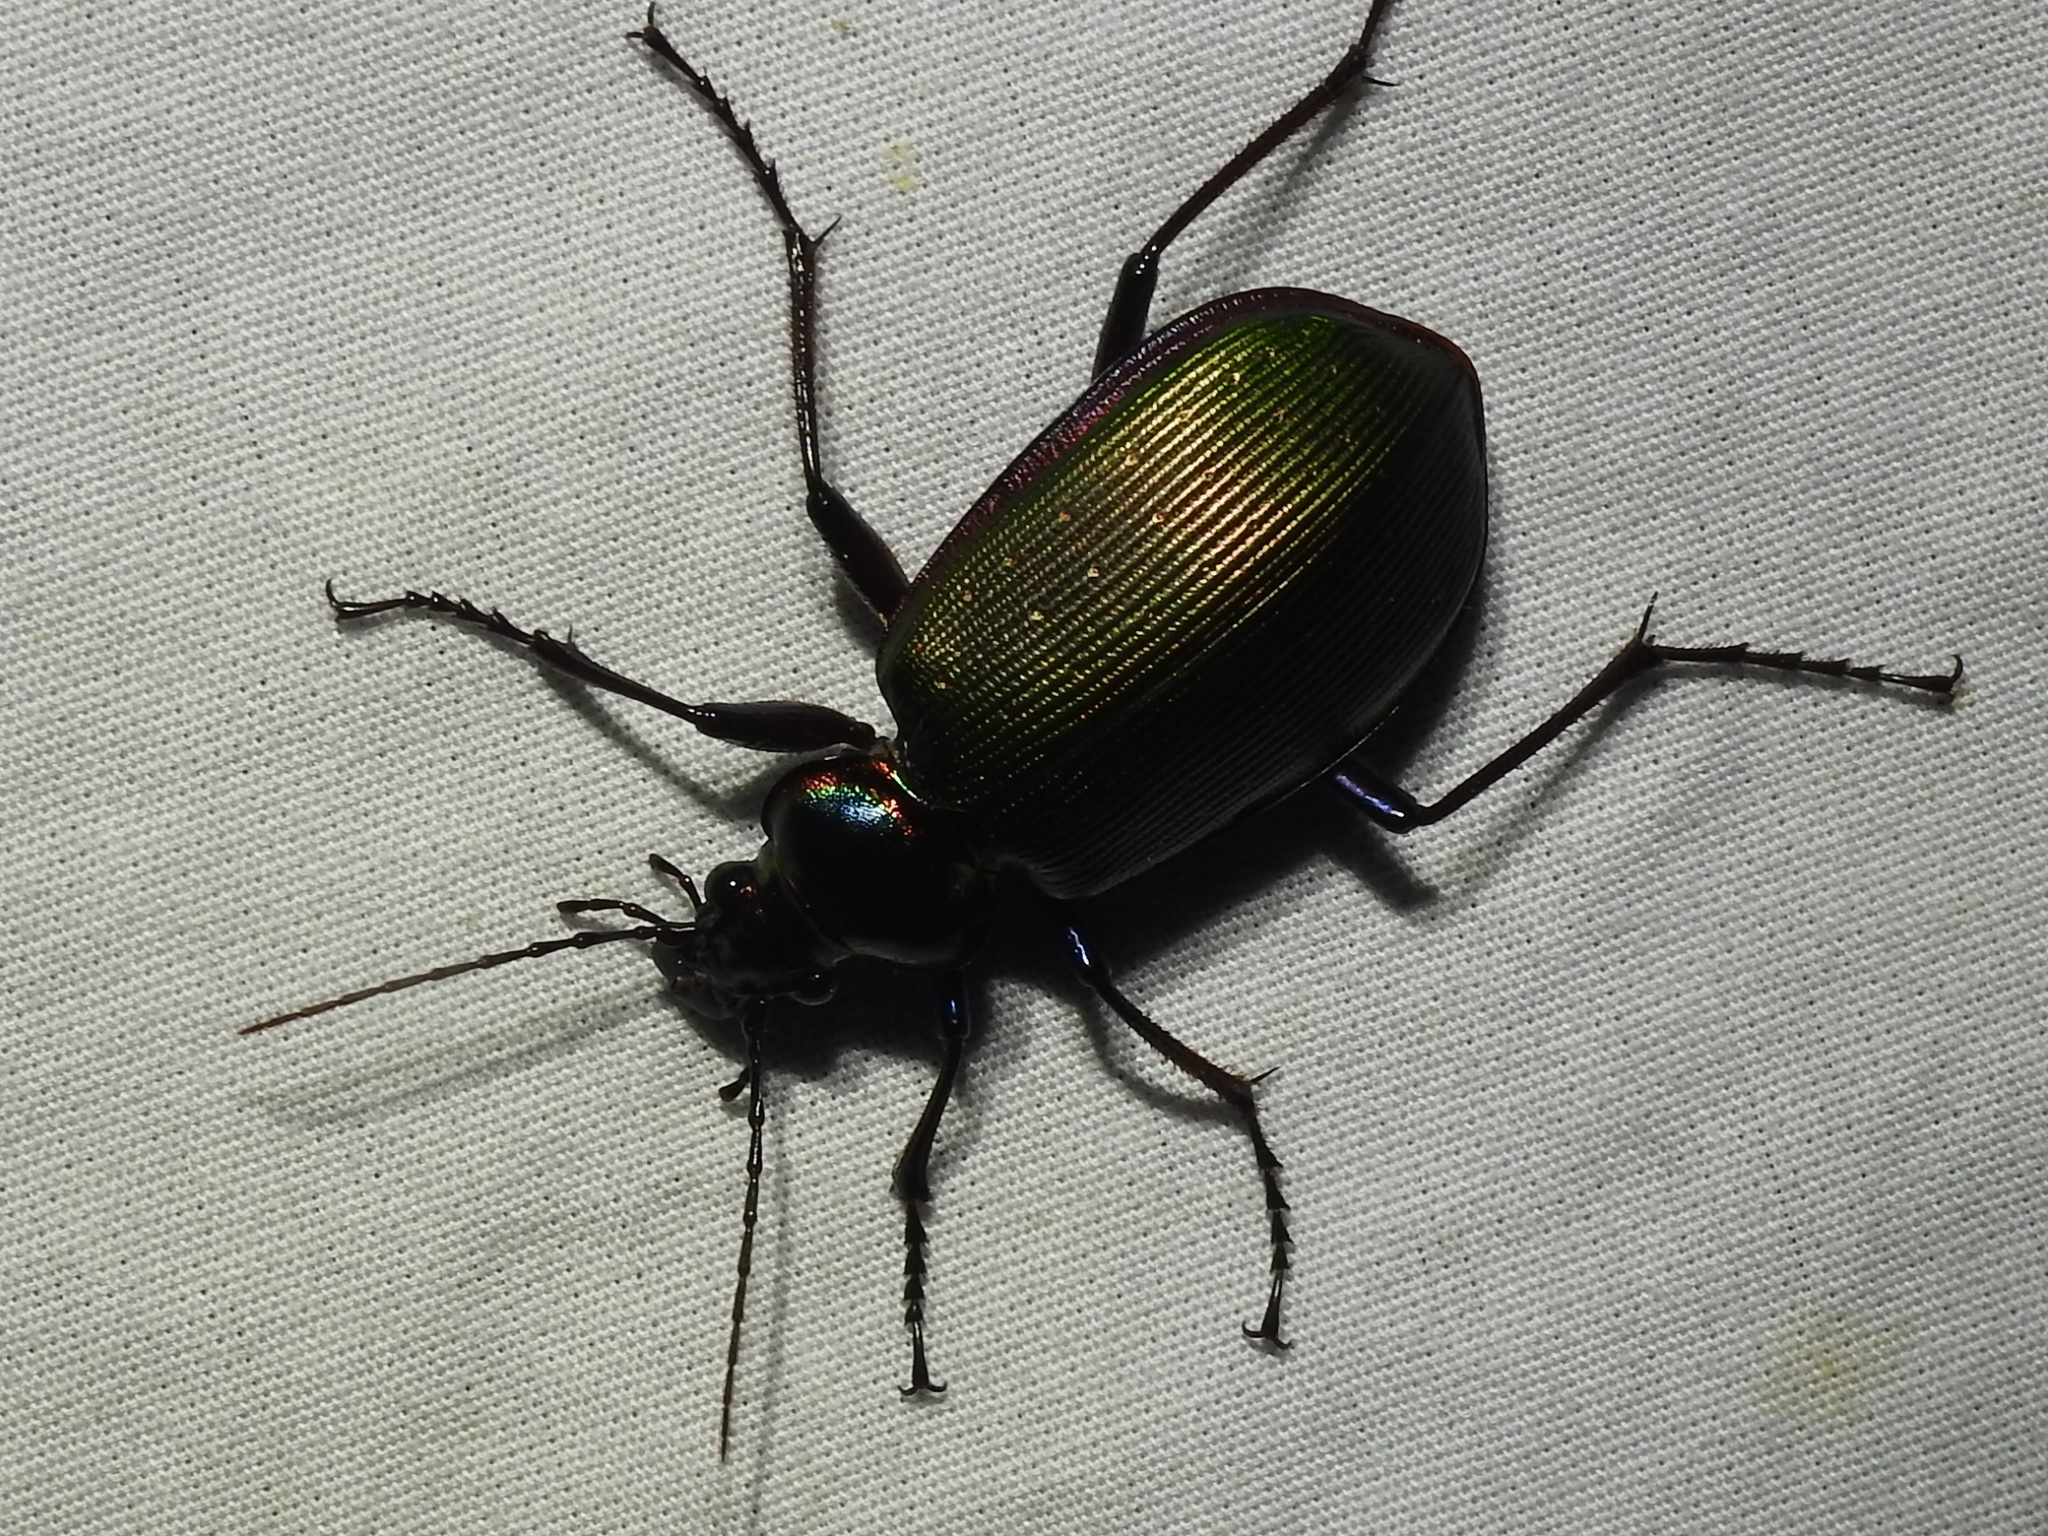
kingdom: Animalia
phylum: Arthropoda
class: Insecta
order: Coleoptera
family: Carabidae
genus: Calosoma
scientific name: Calosoma scrutator
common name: Fiery searcher beetle
